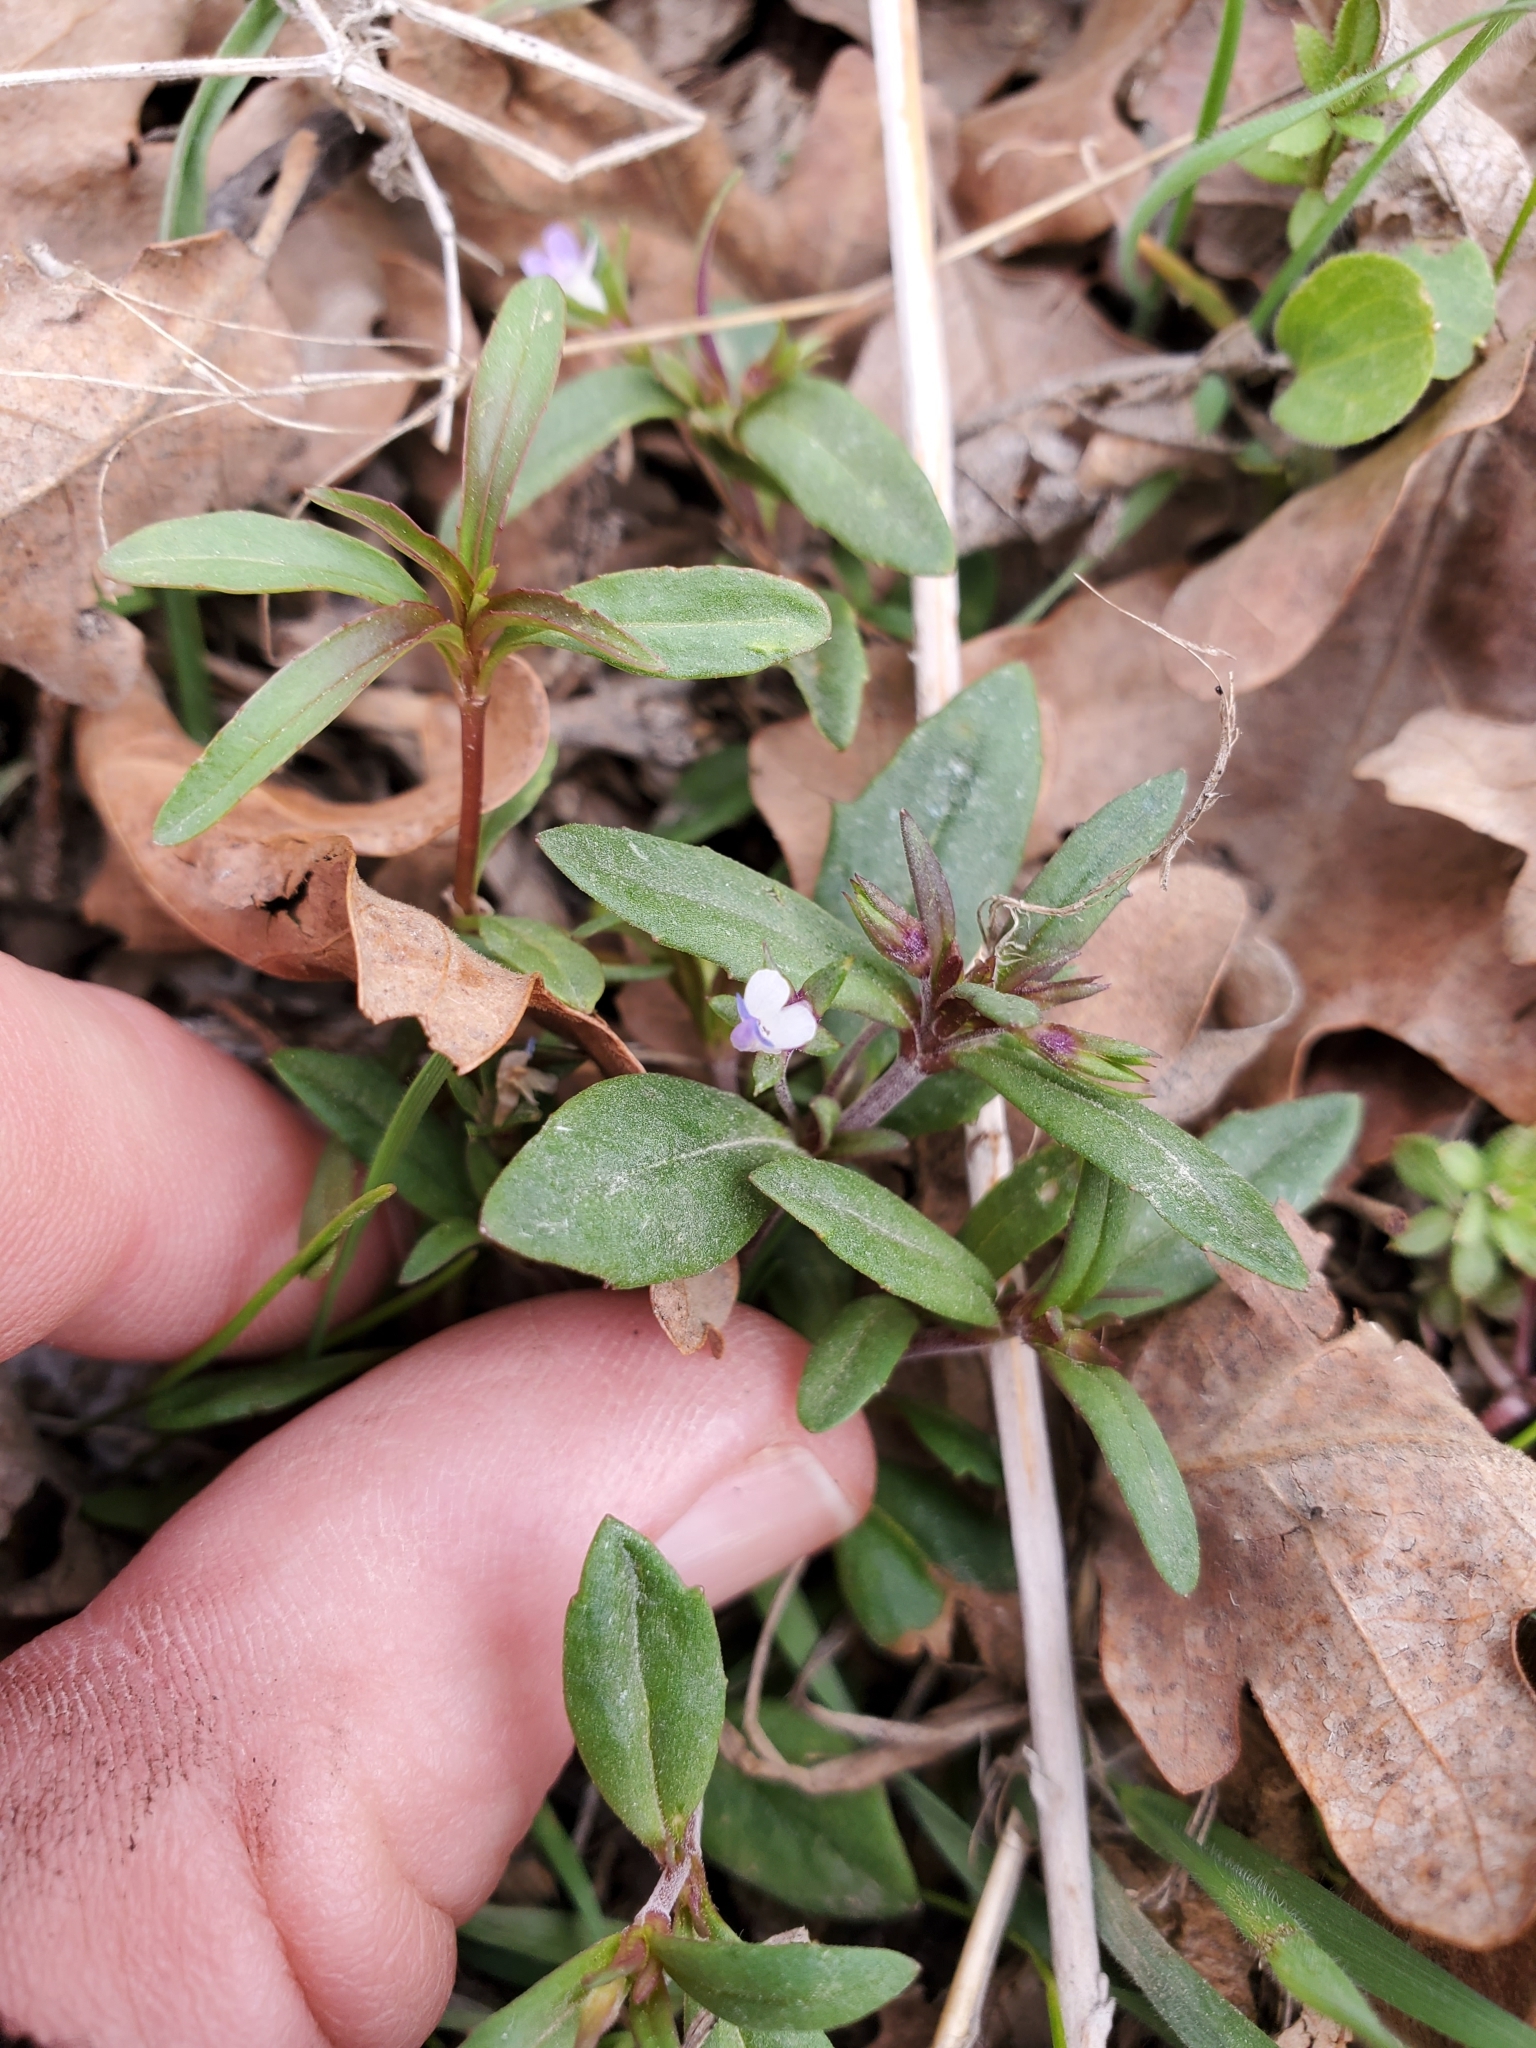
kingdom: Plantae
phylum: Tracheophyta
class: Magnoliopsida
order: Lamiales
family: Plantaginaceae
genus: Collinsia
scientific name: Collinsia parviflora
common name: Blue-lips
